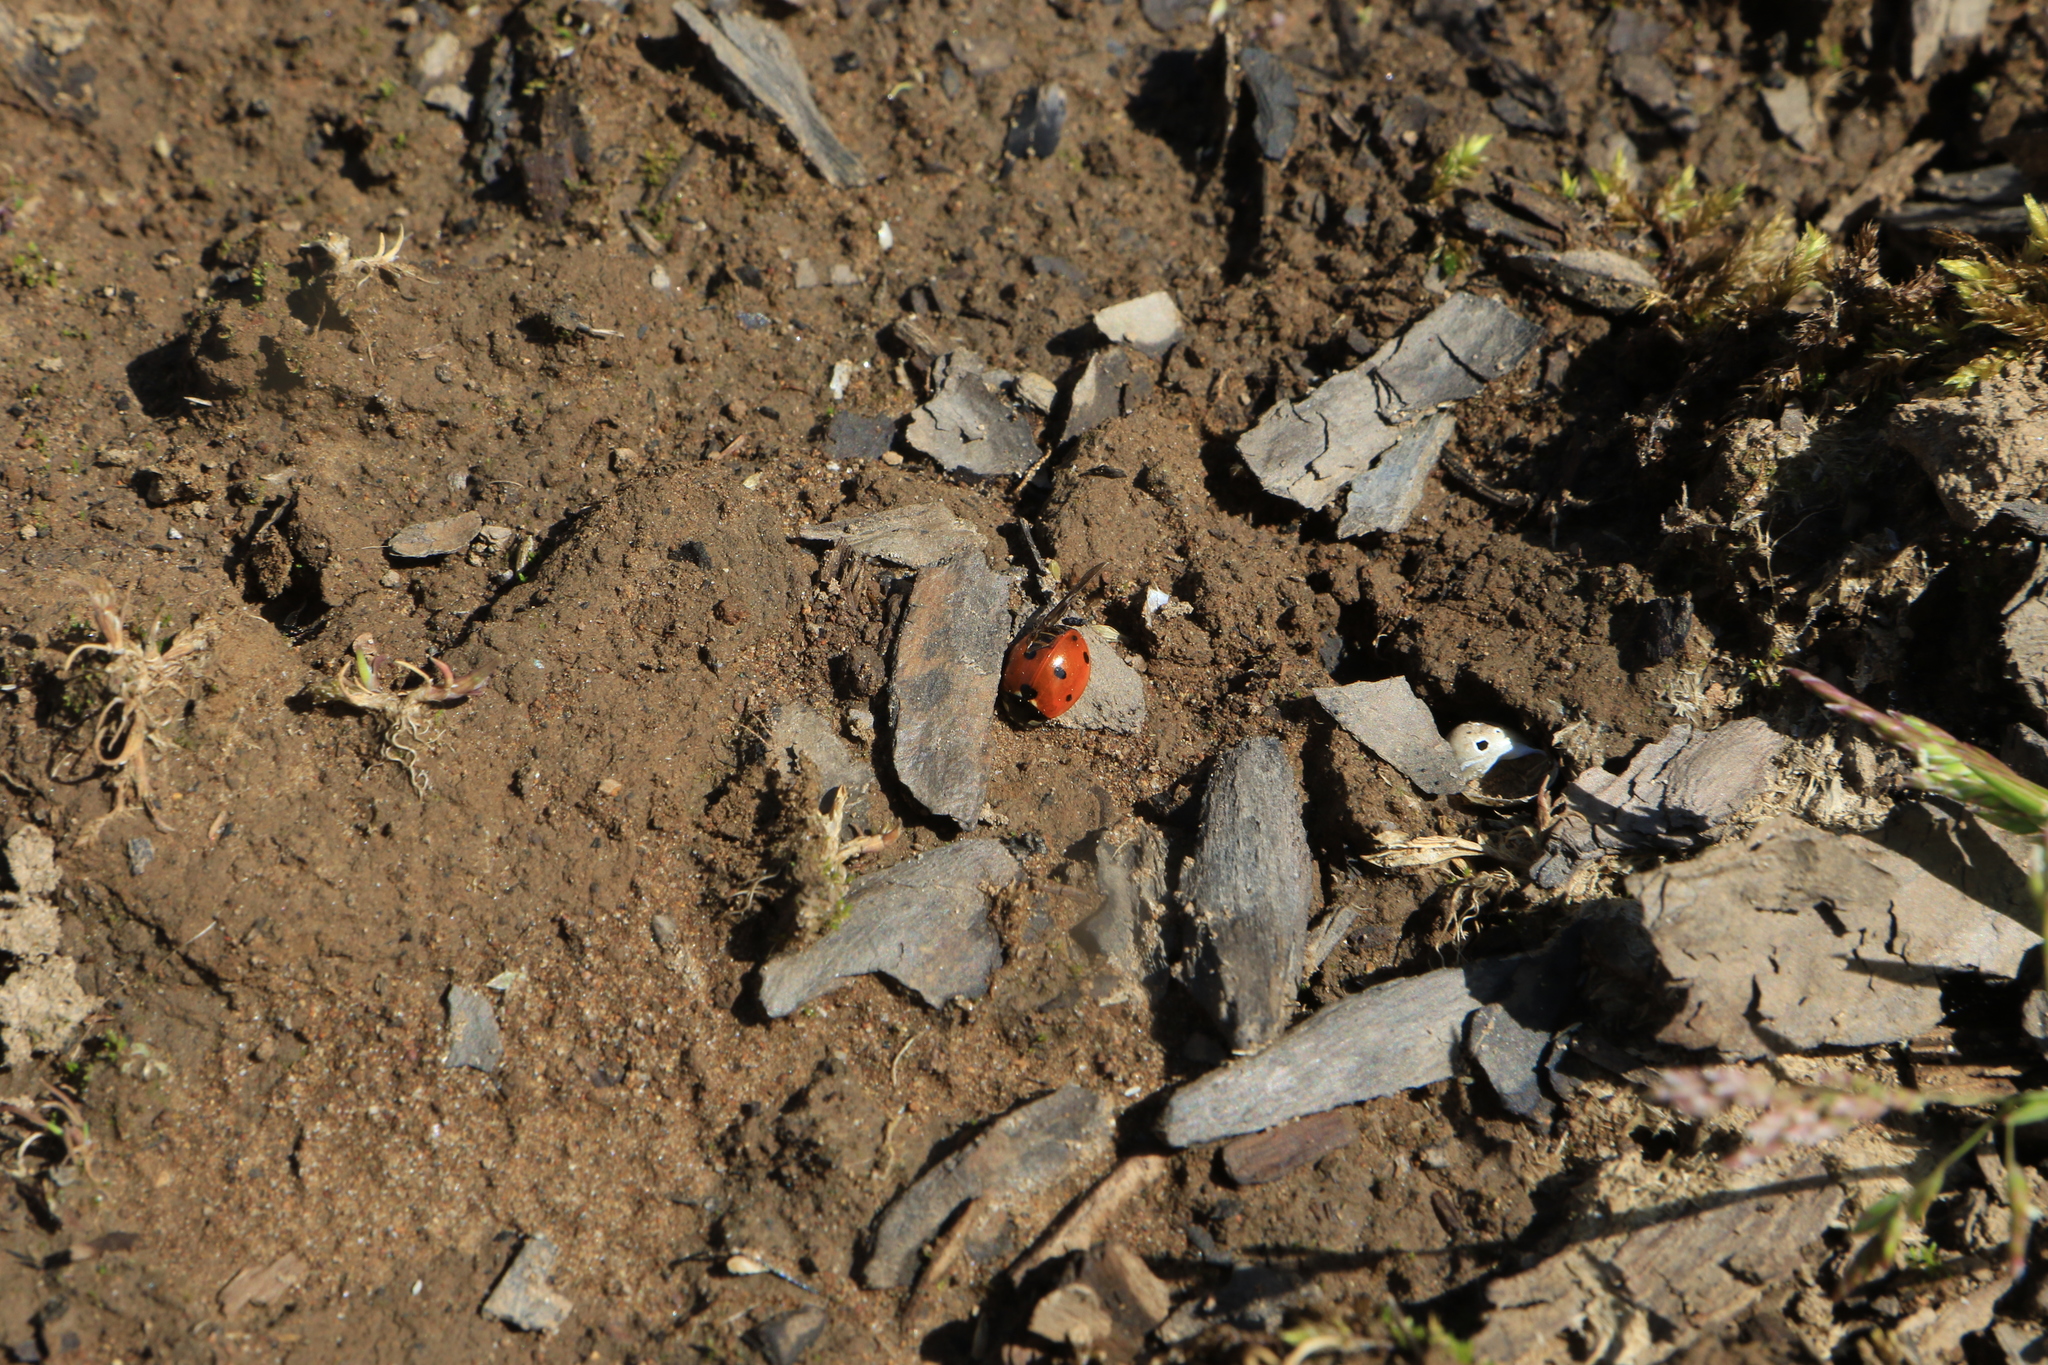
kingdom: Animalia
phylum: Arthropoda
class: Insecta
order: Coleoptera
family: Coccinellidae
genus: Coccinella
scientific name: Coccinella septempunctata
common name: Sevenspotted lady beetle
